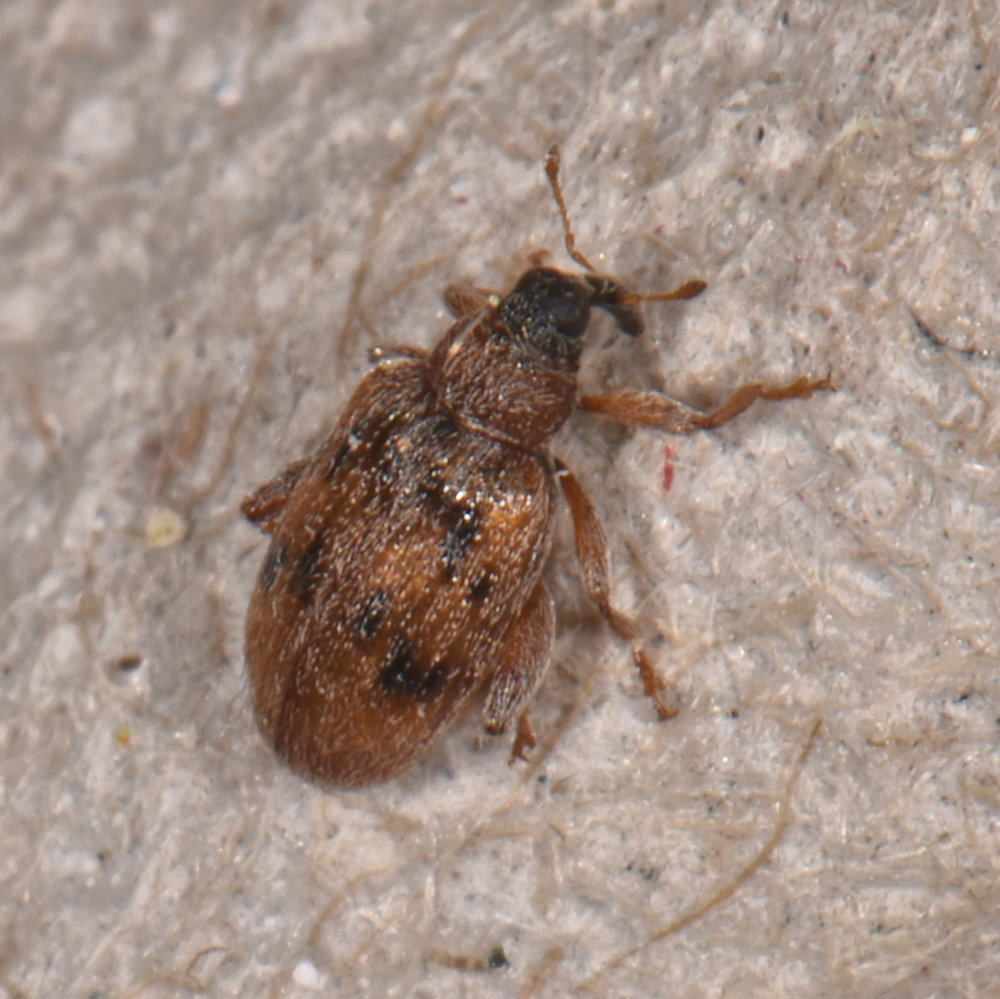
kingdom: Animalia
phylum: Arthropoda
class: Insecta
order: Coleoptera
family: Curculionidae
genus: Orchestes
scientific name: Orchestes steppensis
